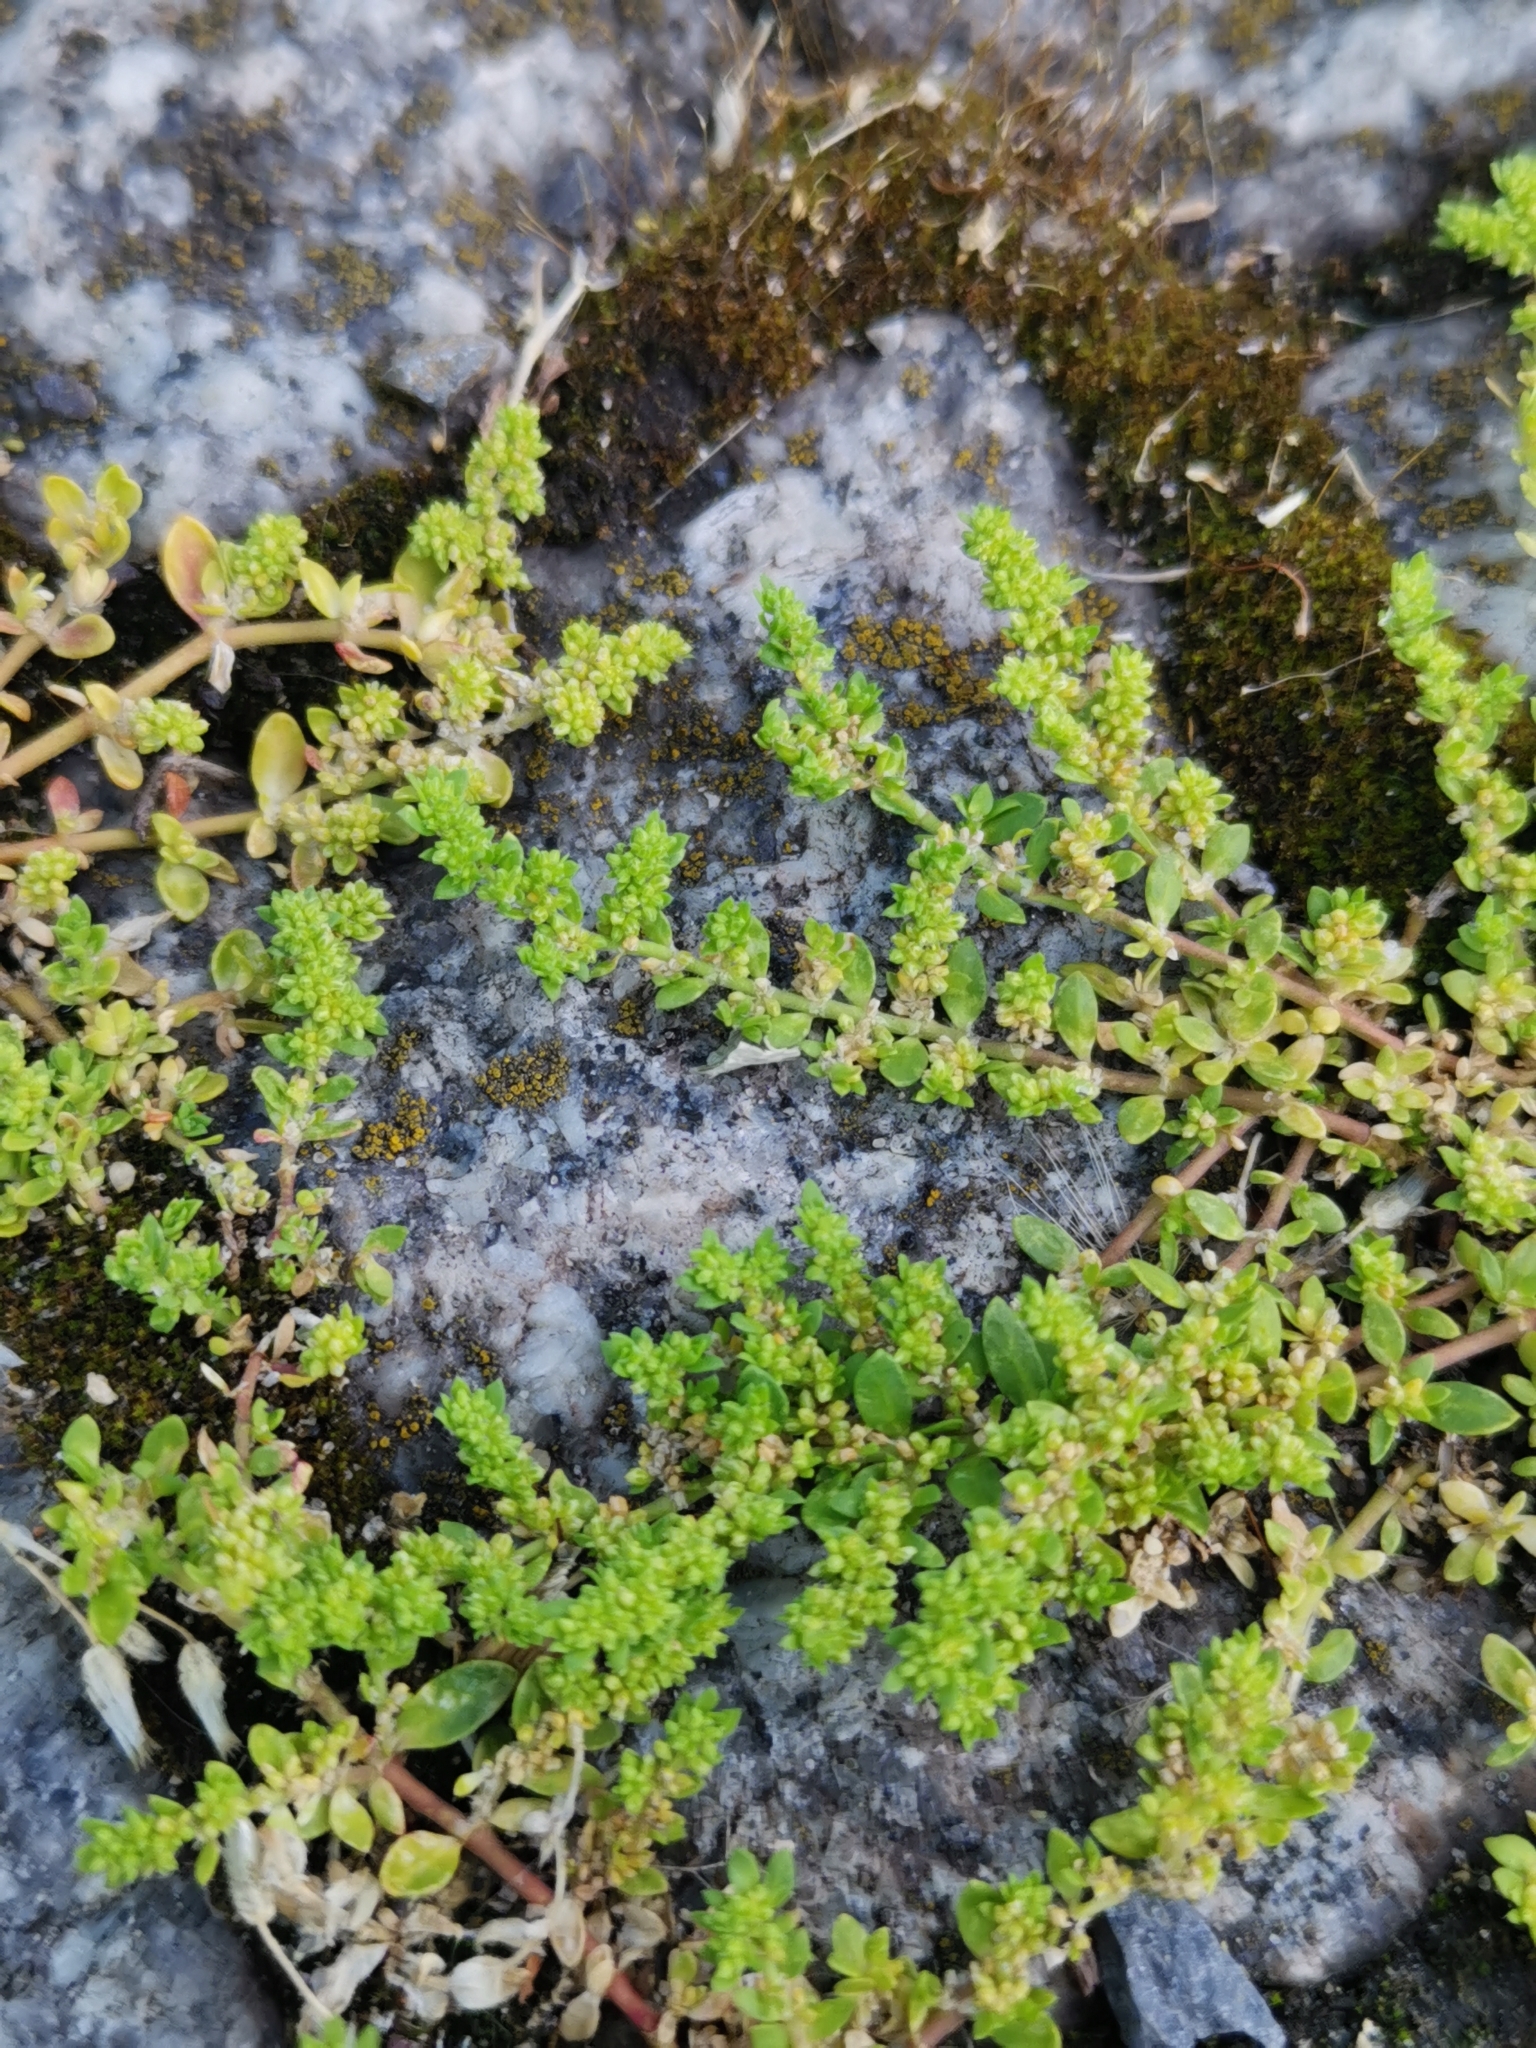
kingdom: Plantae
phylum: Tracheophyta
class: Magnoliopsida
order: Caryophyllales
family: Caryophyllaceae
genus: Herniaria
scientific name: Herniaria glabra
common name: Smooth rupturewort
